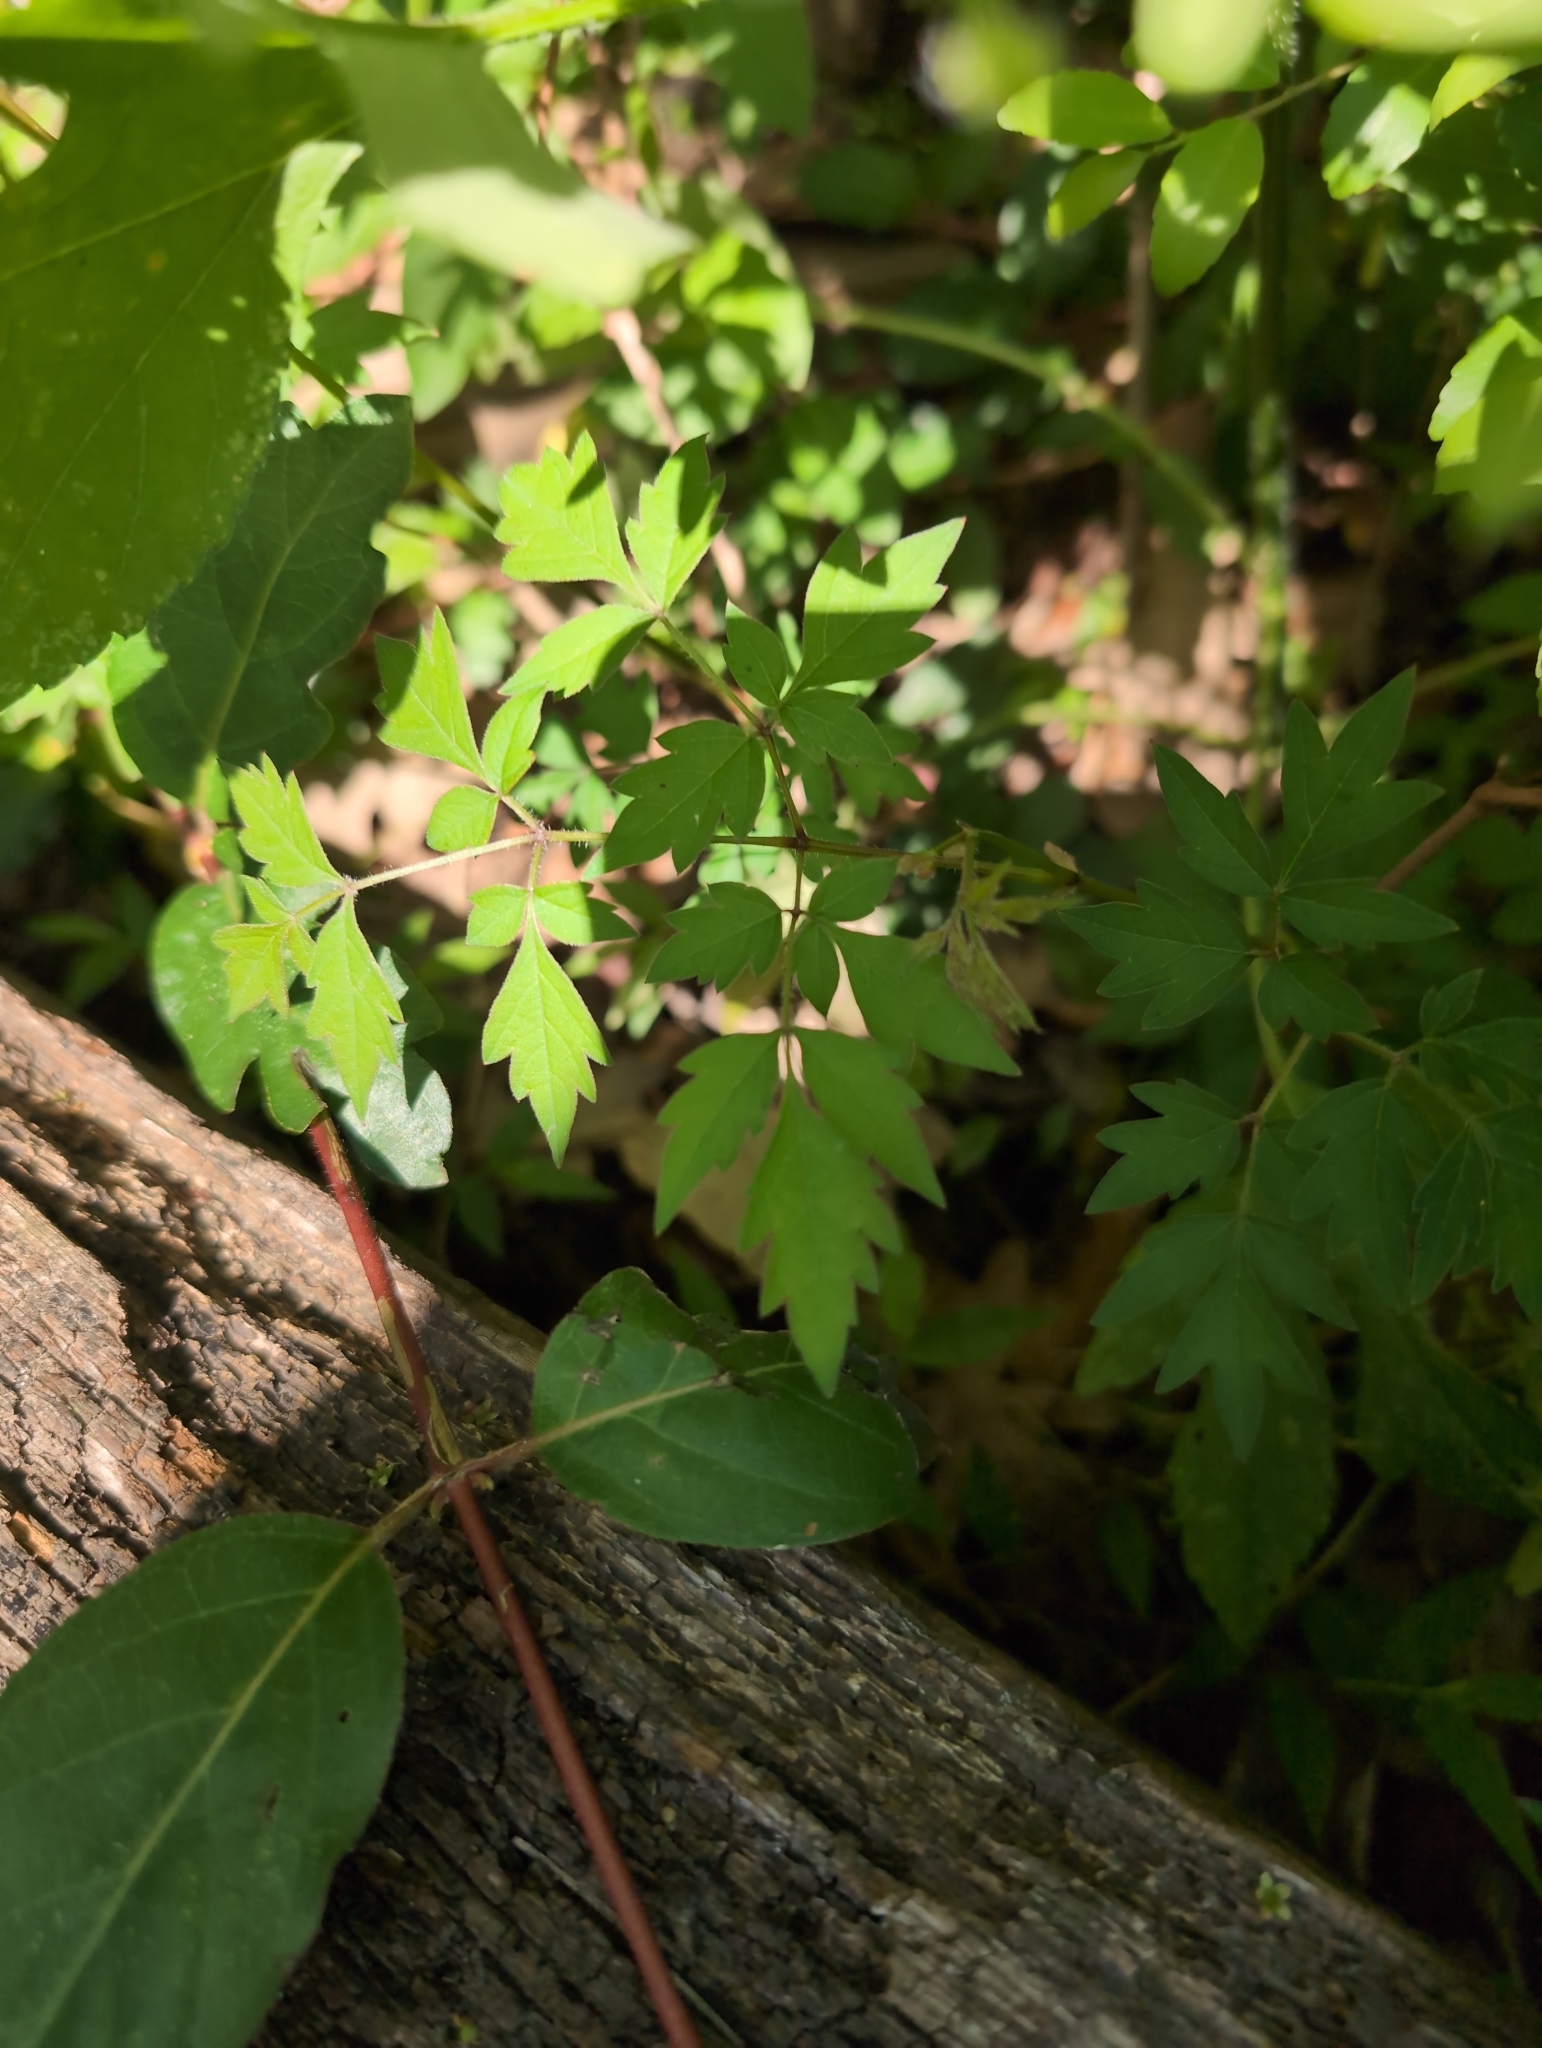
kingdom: Plantae
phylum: Tracheophyta
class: Magnoliopsida
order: Vitales
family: Vitaceae
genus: Nekemias
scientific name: Nekemias arborea
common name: Peppervine
